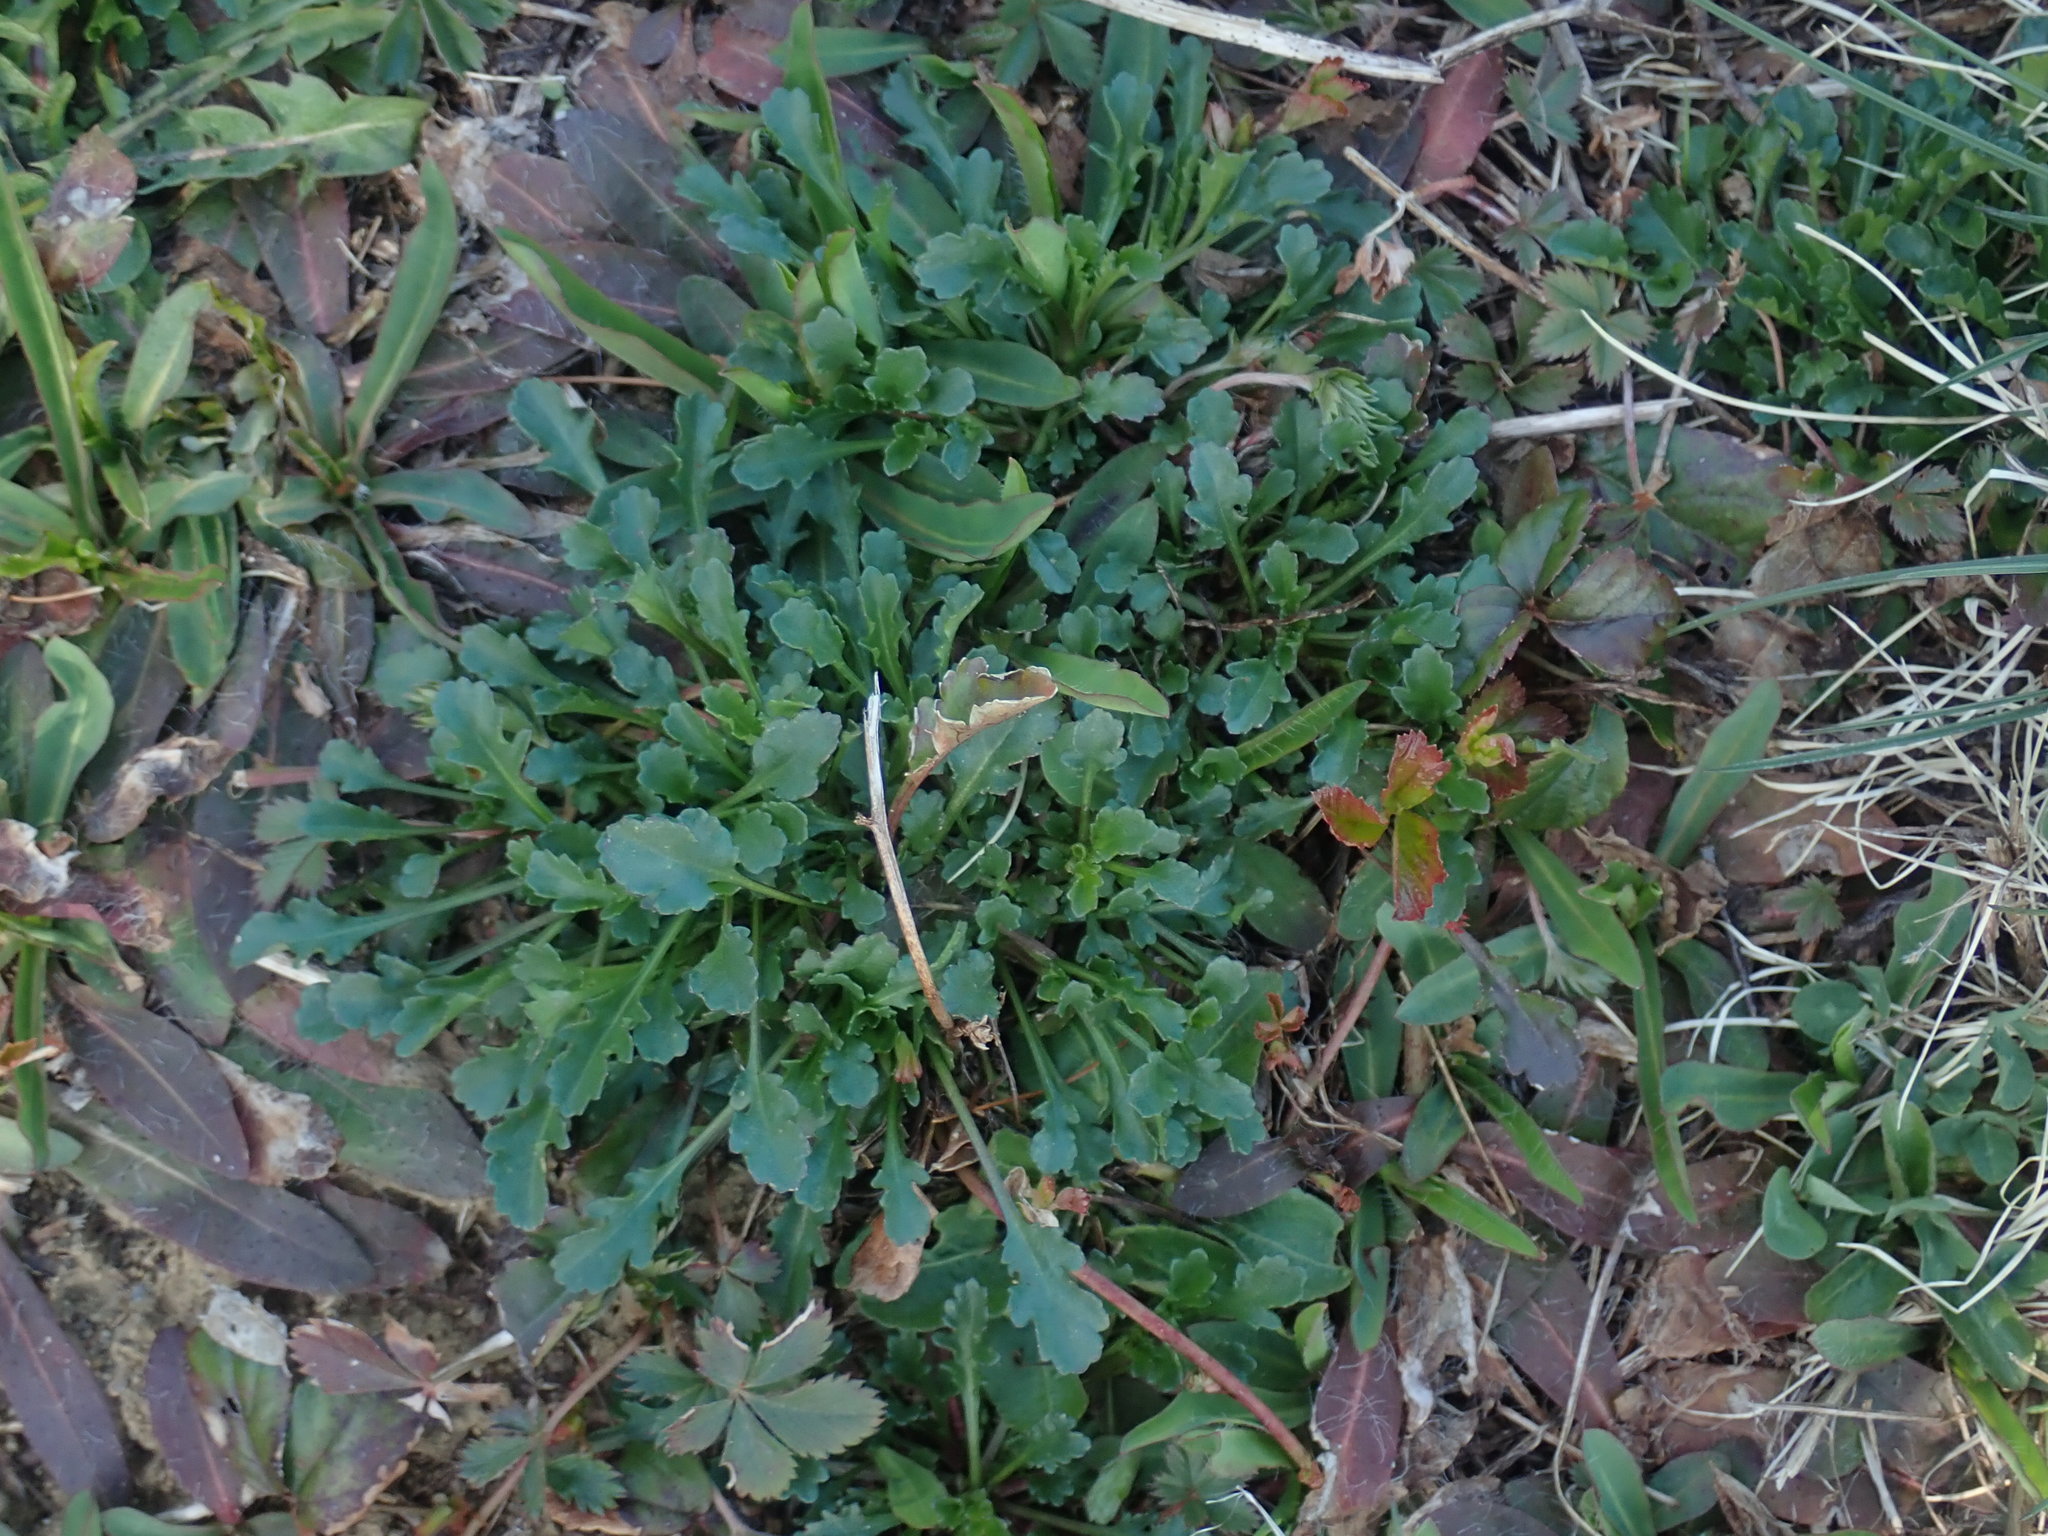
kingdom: Plantae
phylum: Tracheophyta
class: Magnoliopsida
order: Asterales
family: Asteraceae
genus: Leucanthemum
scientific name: Leucanthemum vulgare
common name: Oxeye daisy
